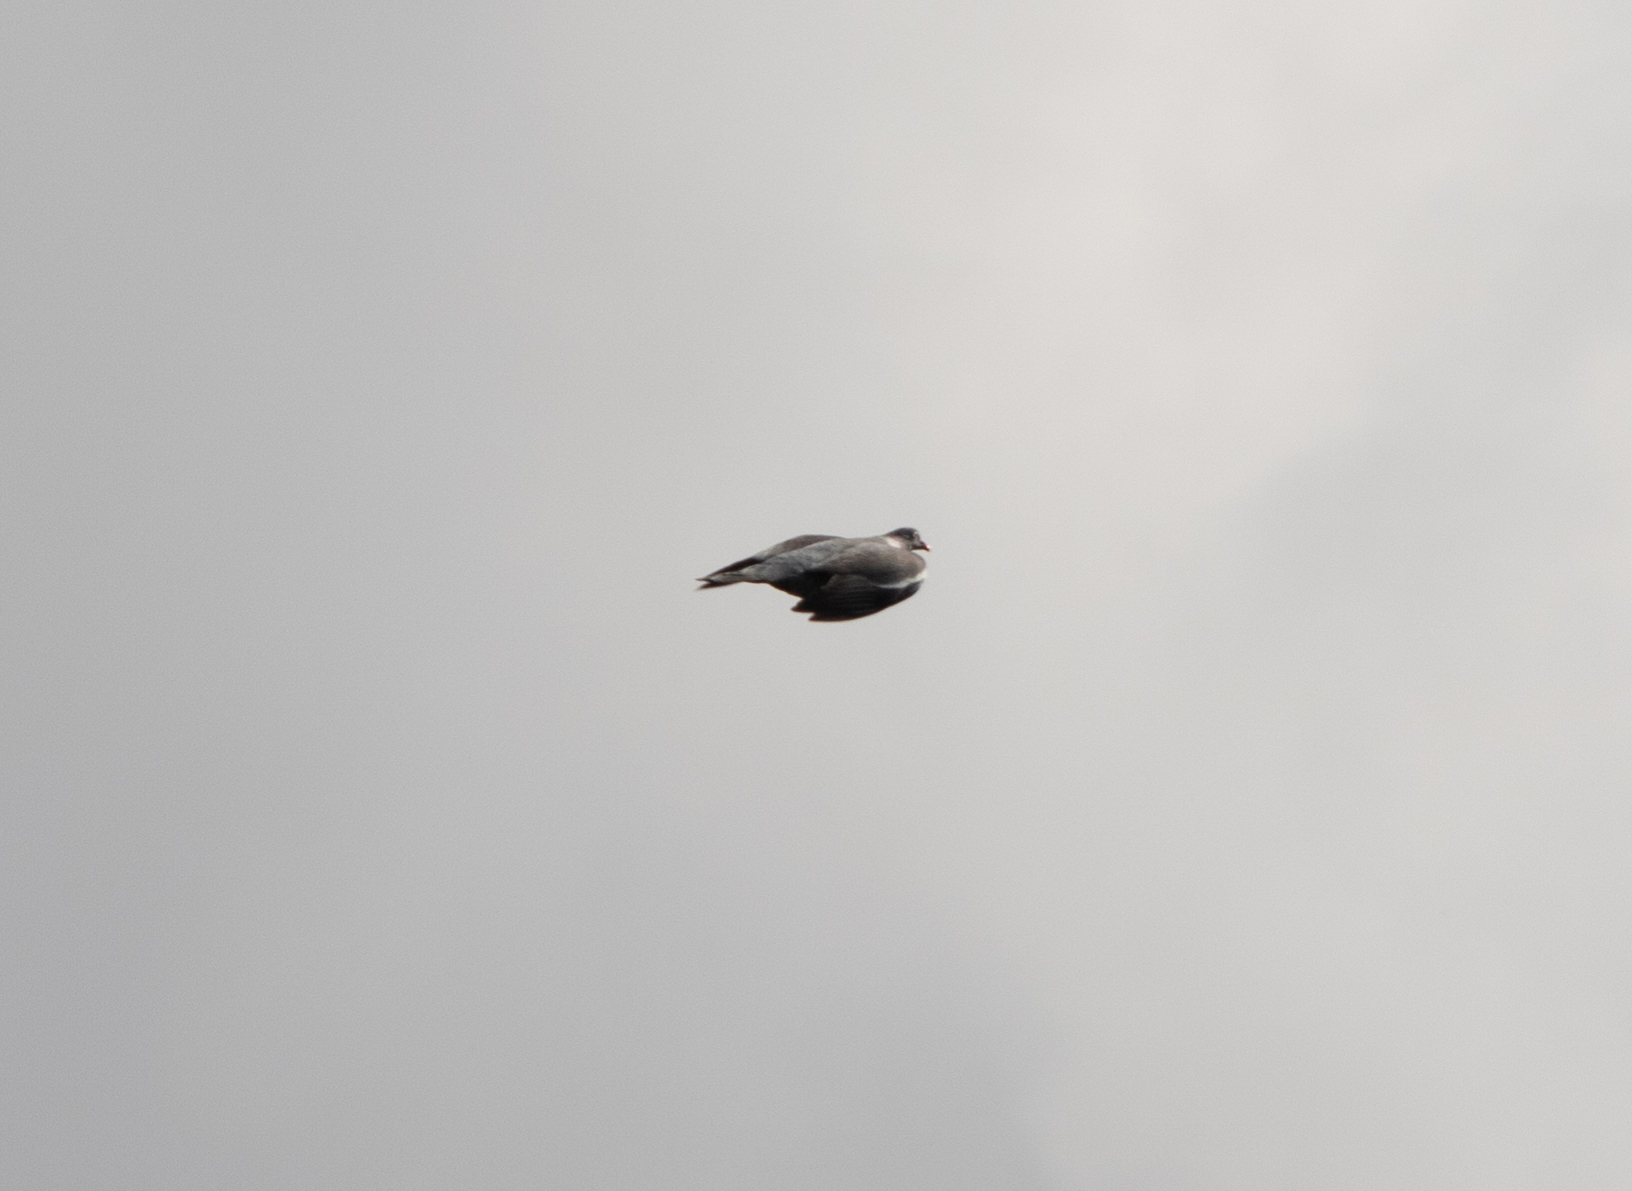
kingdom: Animalia
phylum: Chordata
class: Aves
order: Columbiformes
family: Columbidae
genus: Columba
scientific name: Columba palumbus
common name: Common wood pigeon
